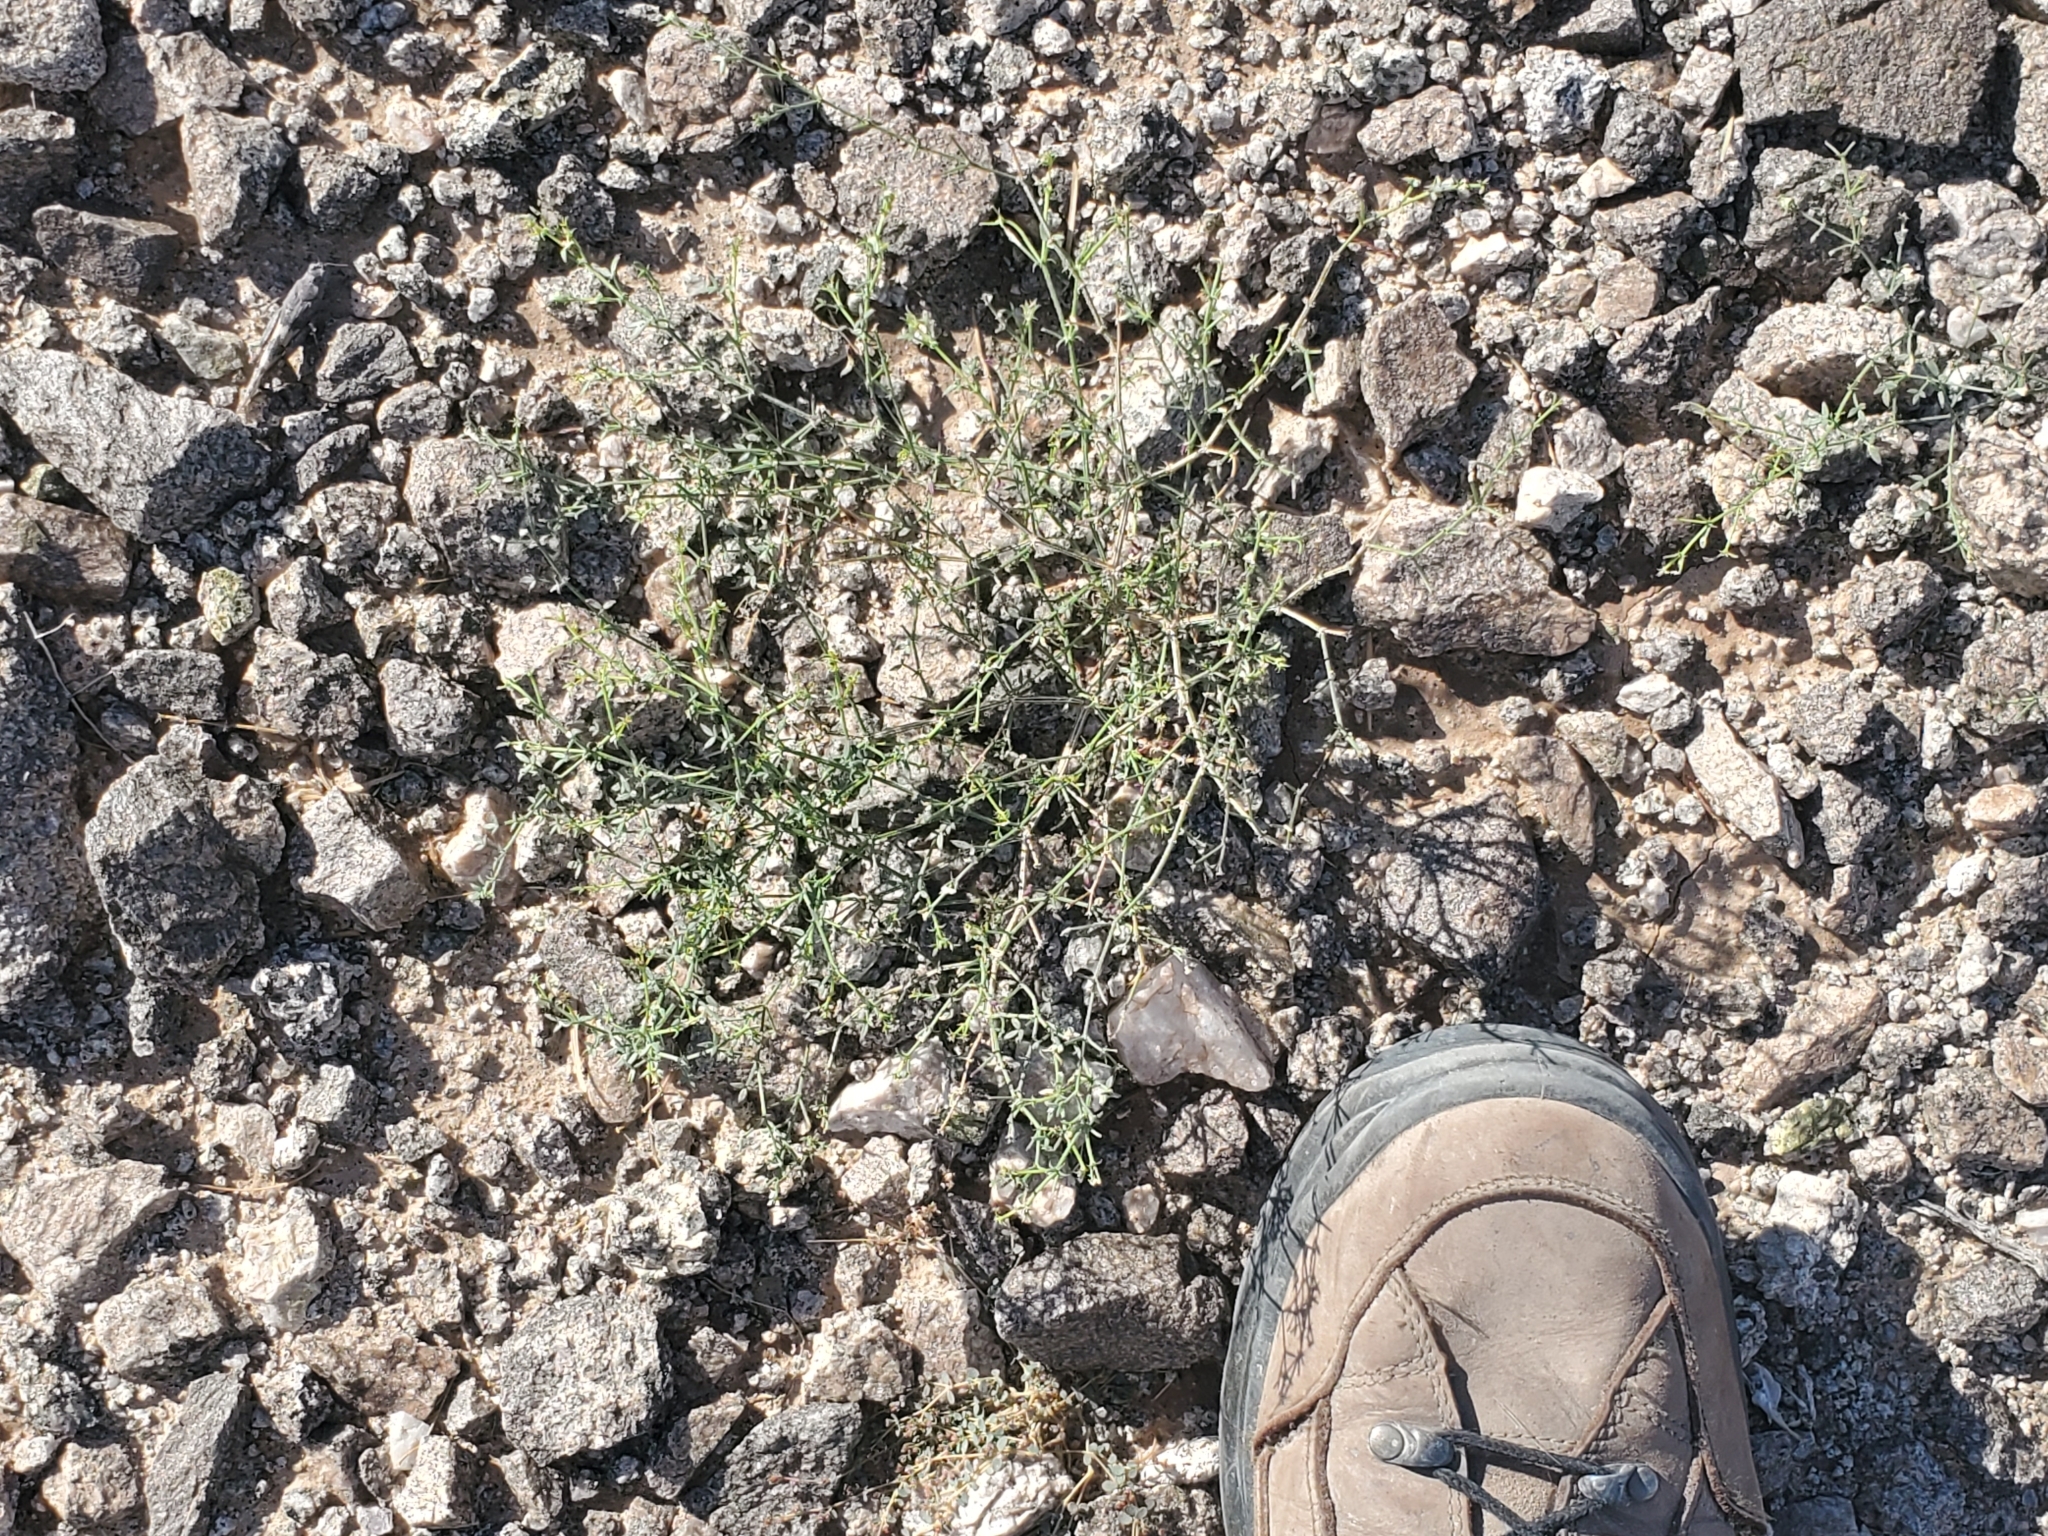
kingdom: Plantae
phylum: Tracheophyta
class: Magnoliopsida
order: Zygophyllales
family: Zygophyllaceae
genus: Fagonia
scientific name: Fagonia laevis
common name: California fagonbush
